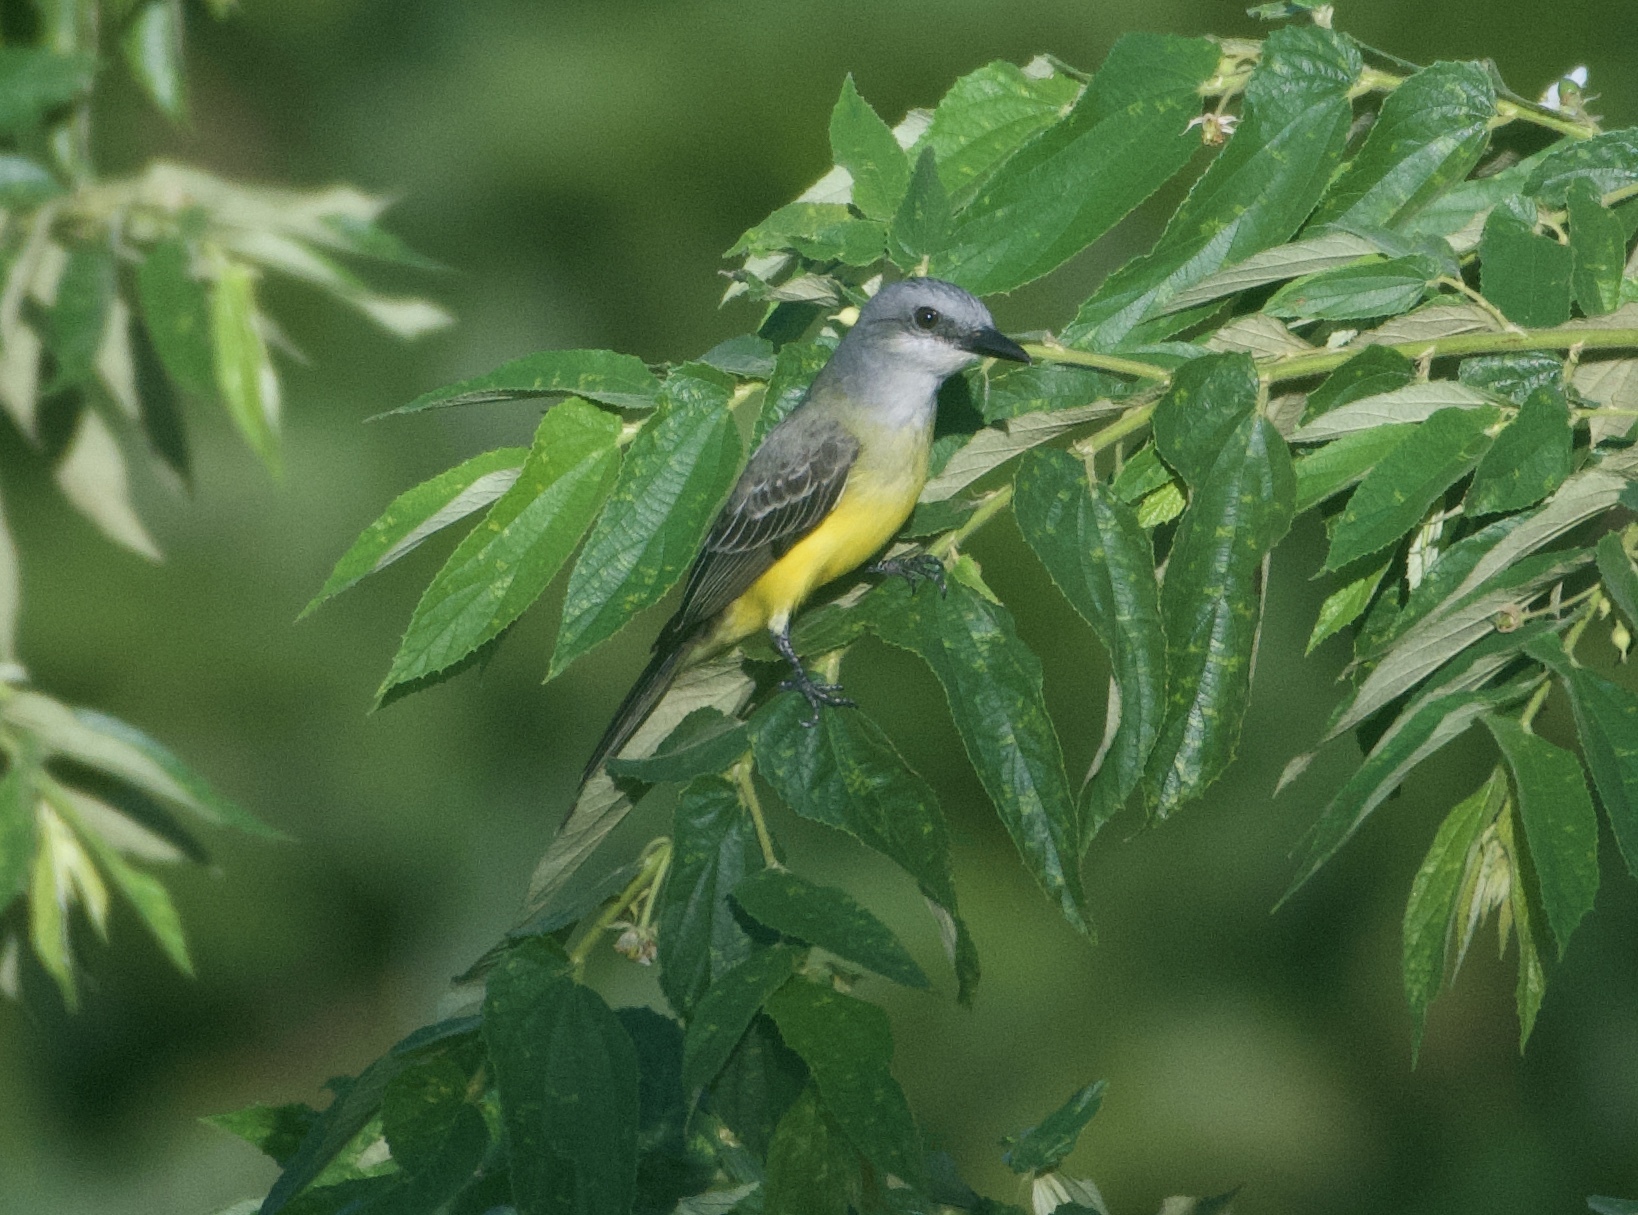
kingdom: Animalia
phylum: Chordata
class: Aves
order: Passeriformes
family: Tyrannidae
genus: Tyrannus
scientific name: Tyrannus melancholicus
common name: Tropical kingbird
